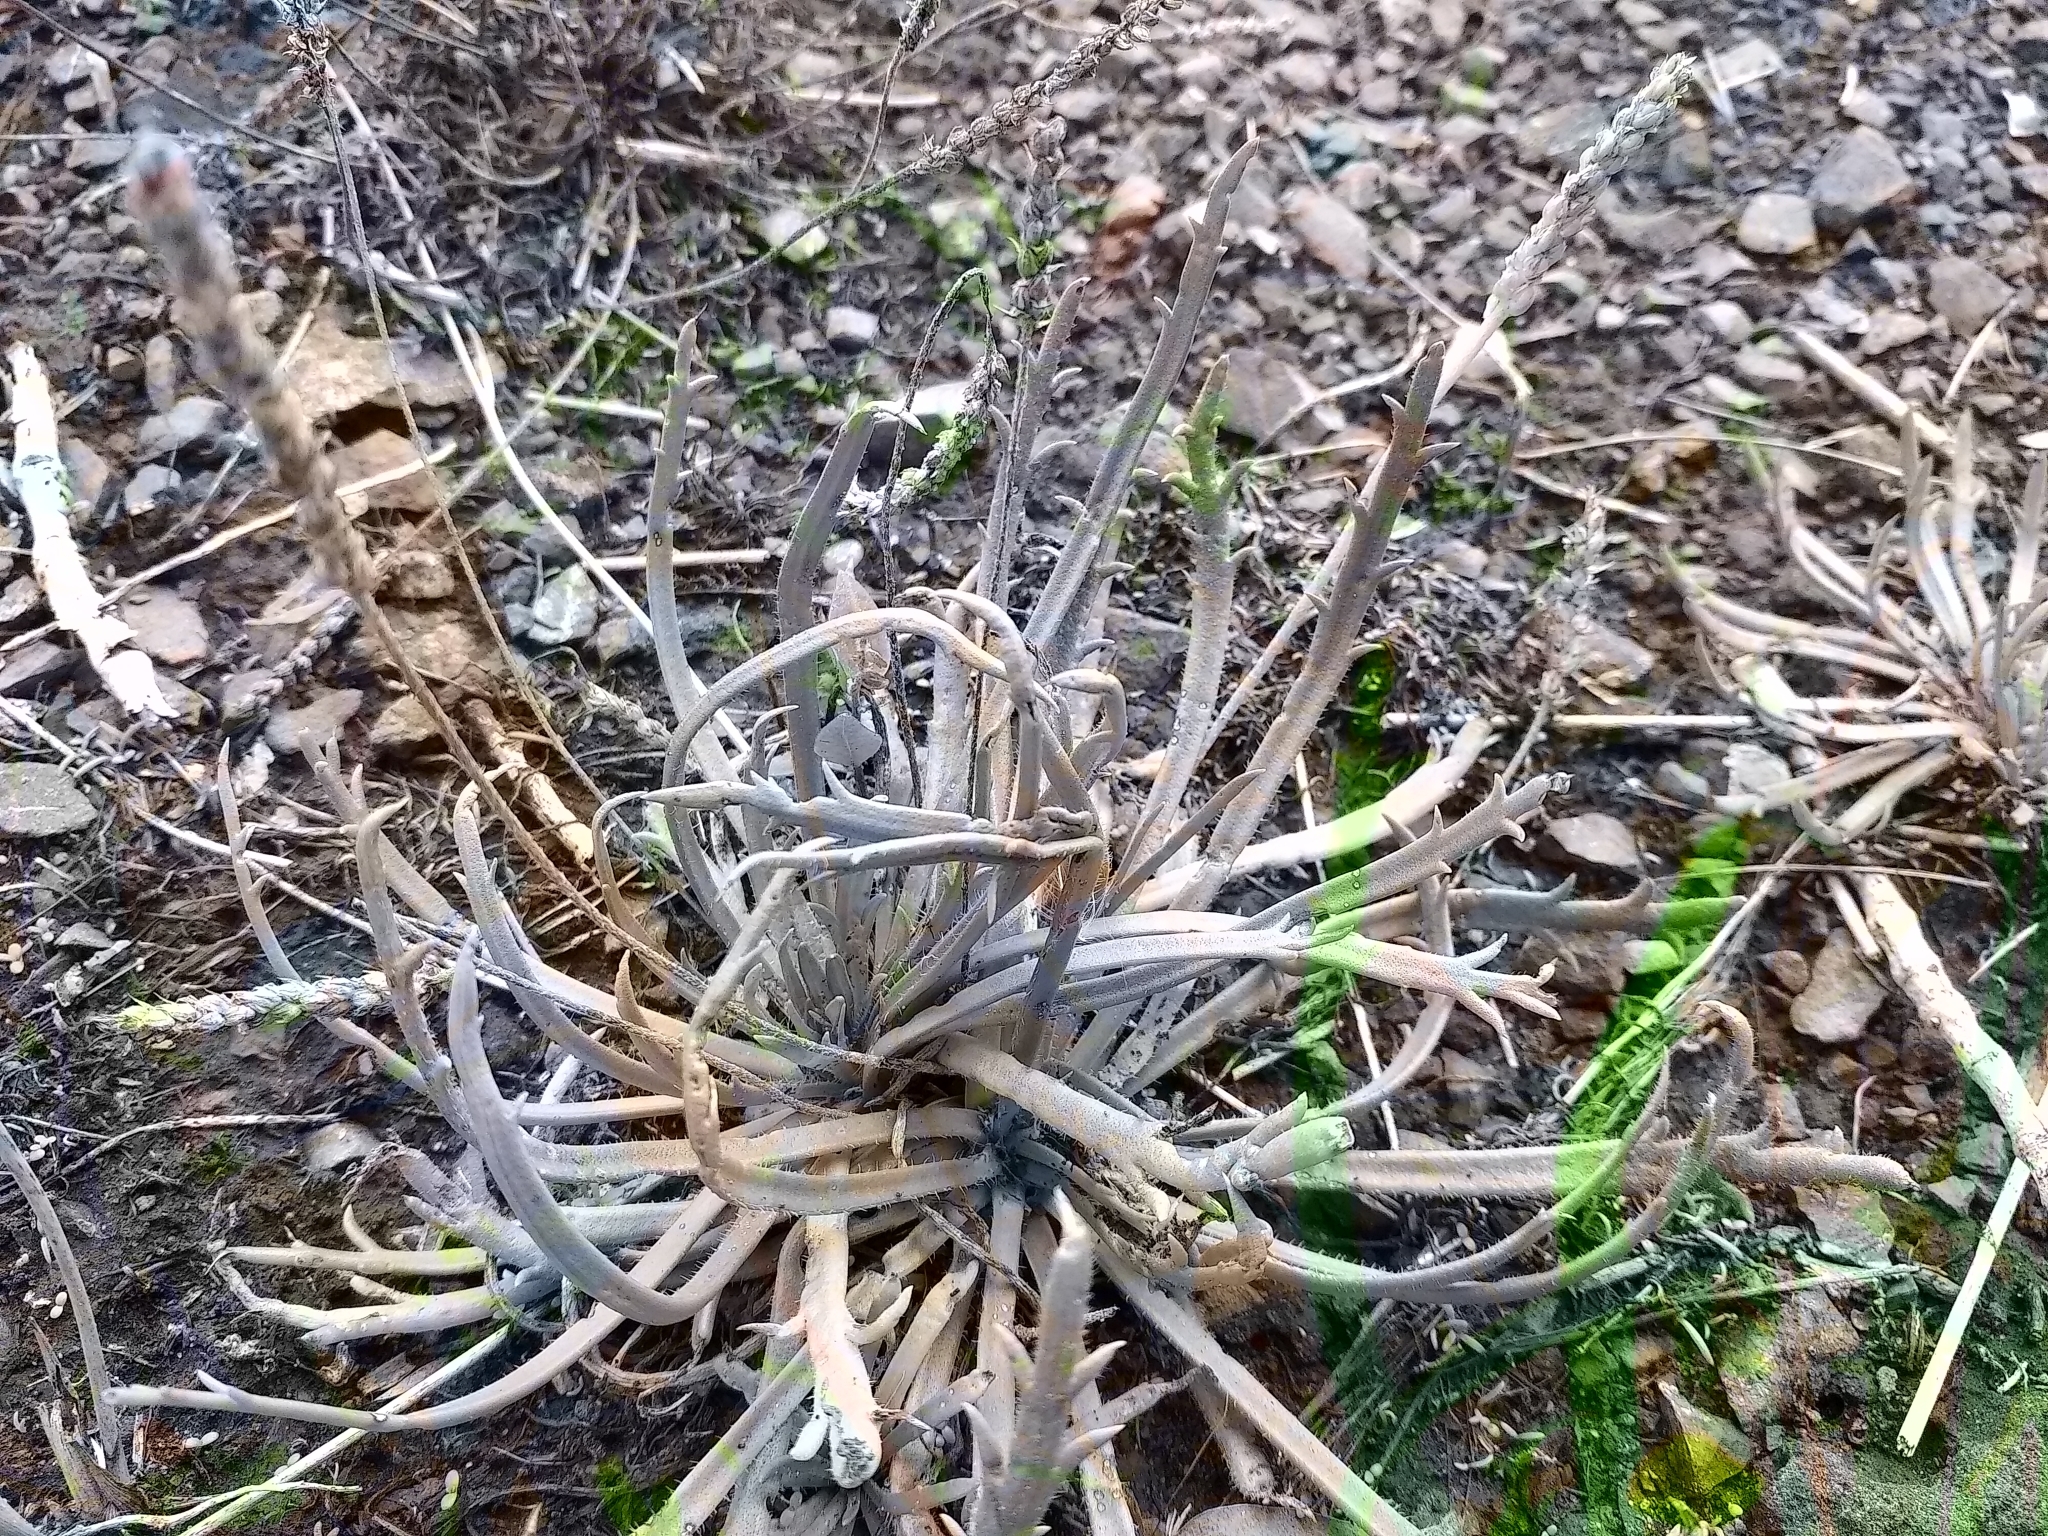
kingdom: Plantae
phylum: Tracheophyta
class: Magnoliopsida
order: Lamiales
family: Plantaginaceae
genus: Plantago
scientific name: Plantago coronopus
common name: Buck's-horn plantain
